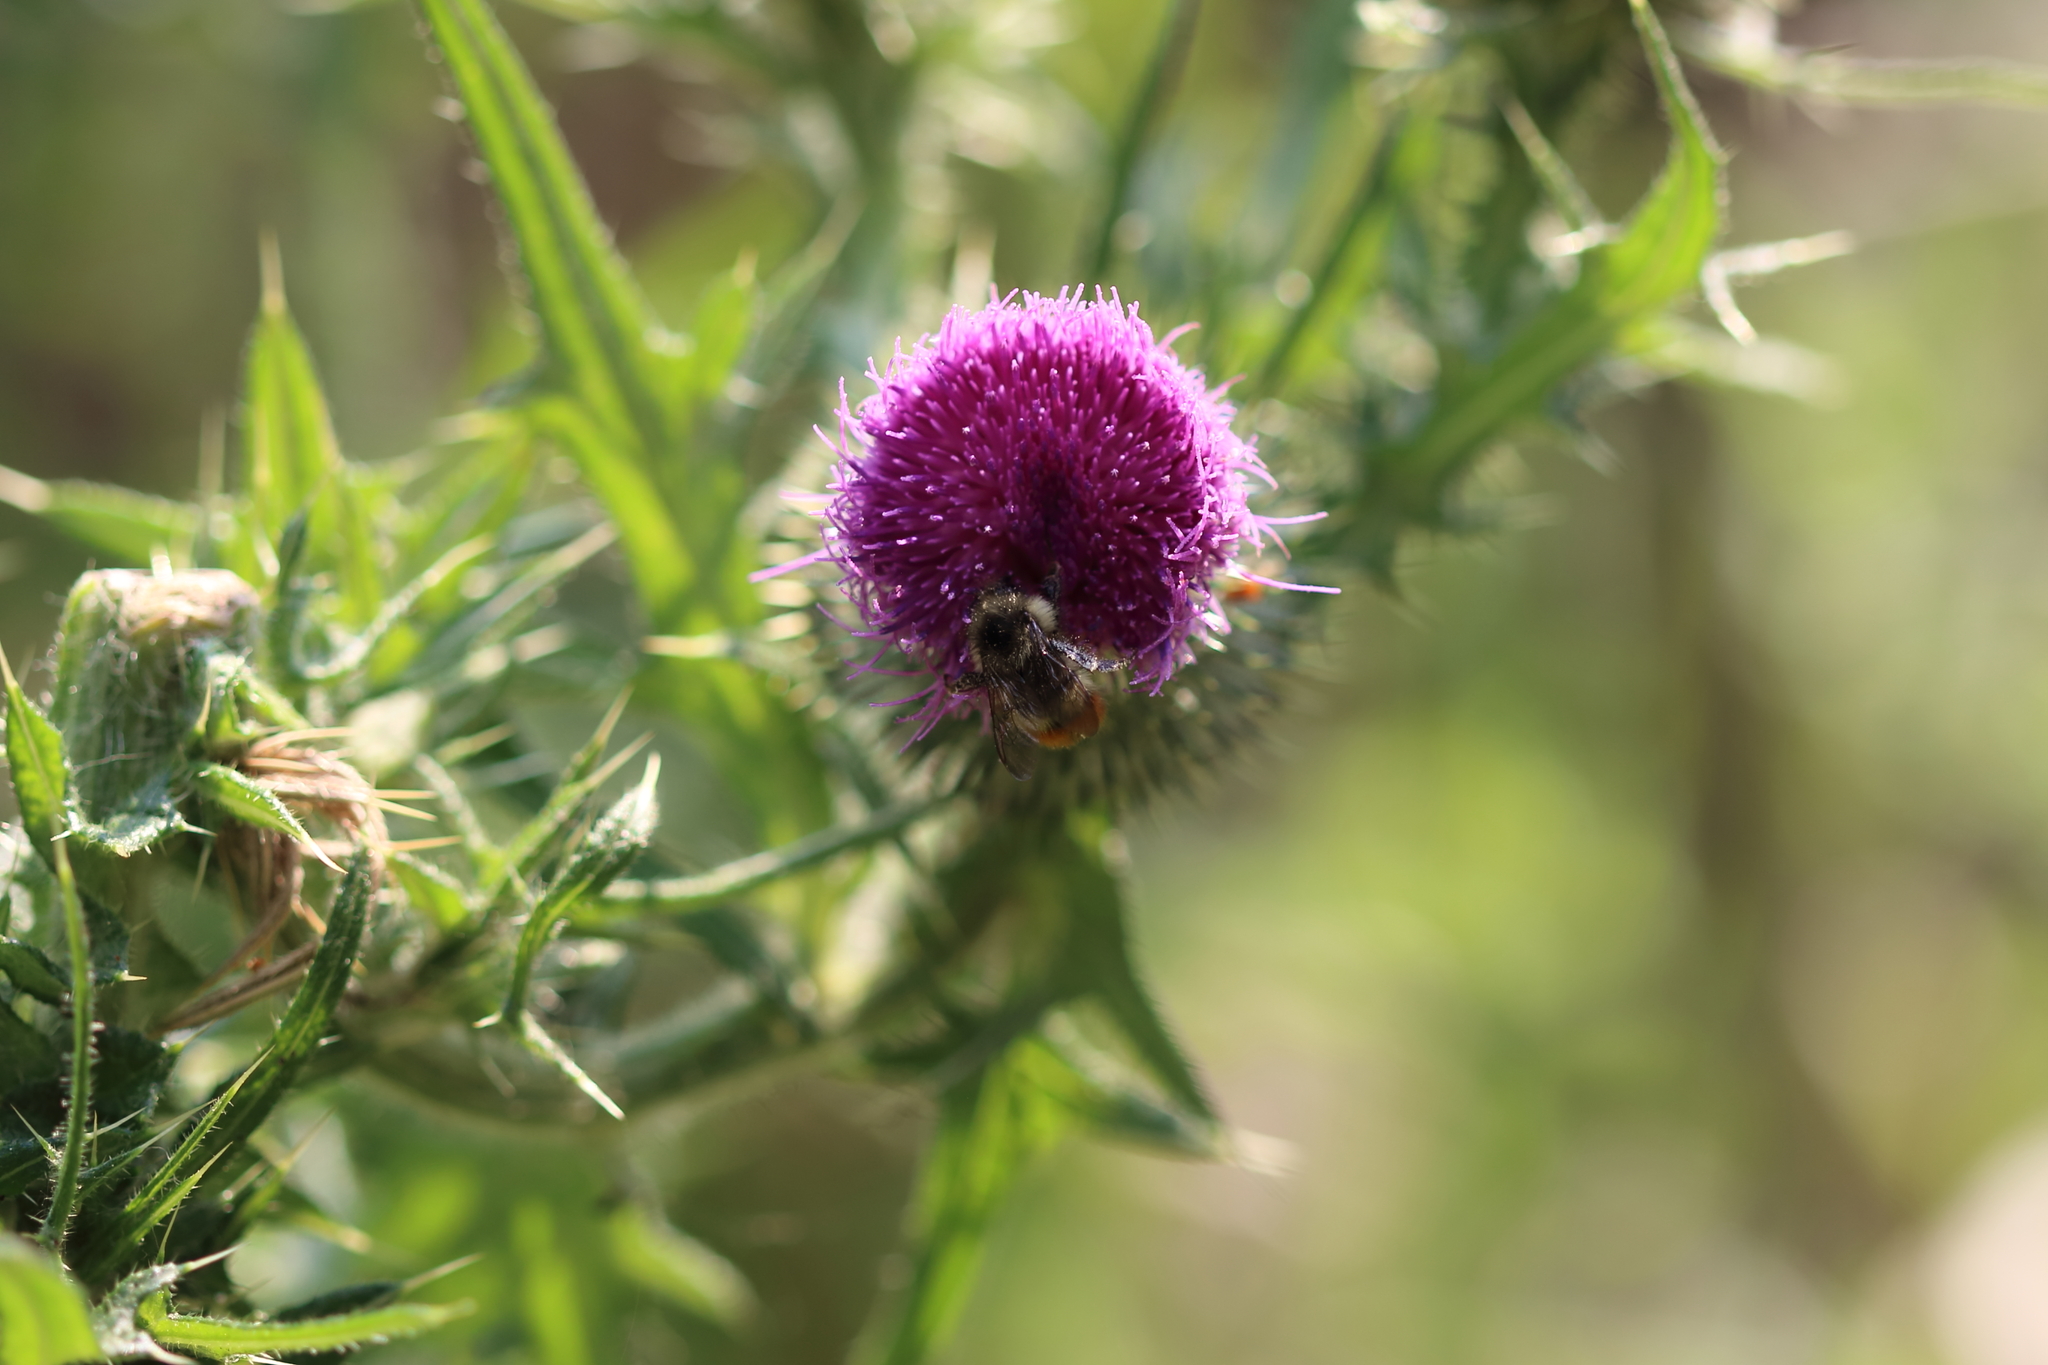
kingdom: Animalia
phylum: Arthropoda
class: Insecta
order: Hymenoptera
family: Apidae
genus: Bombus
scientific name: Bombus flavifrons
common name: Yellow head bumble bee
